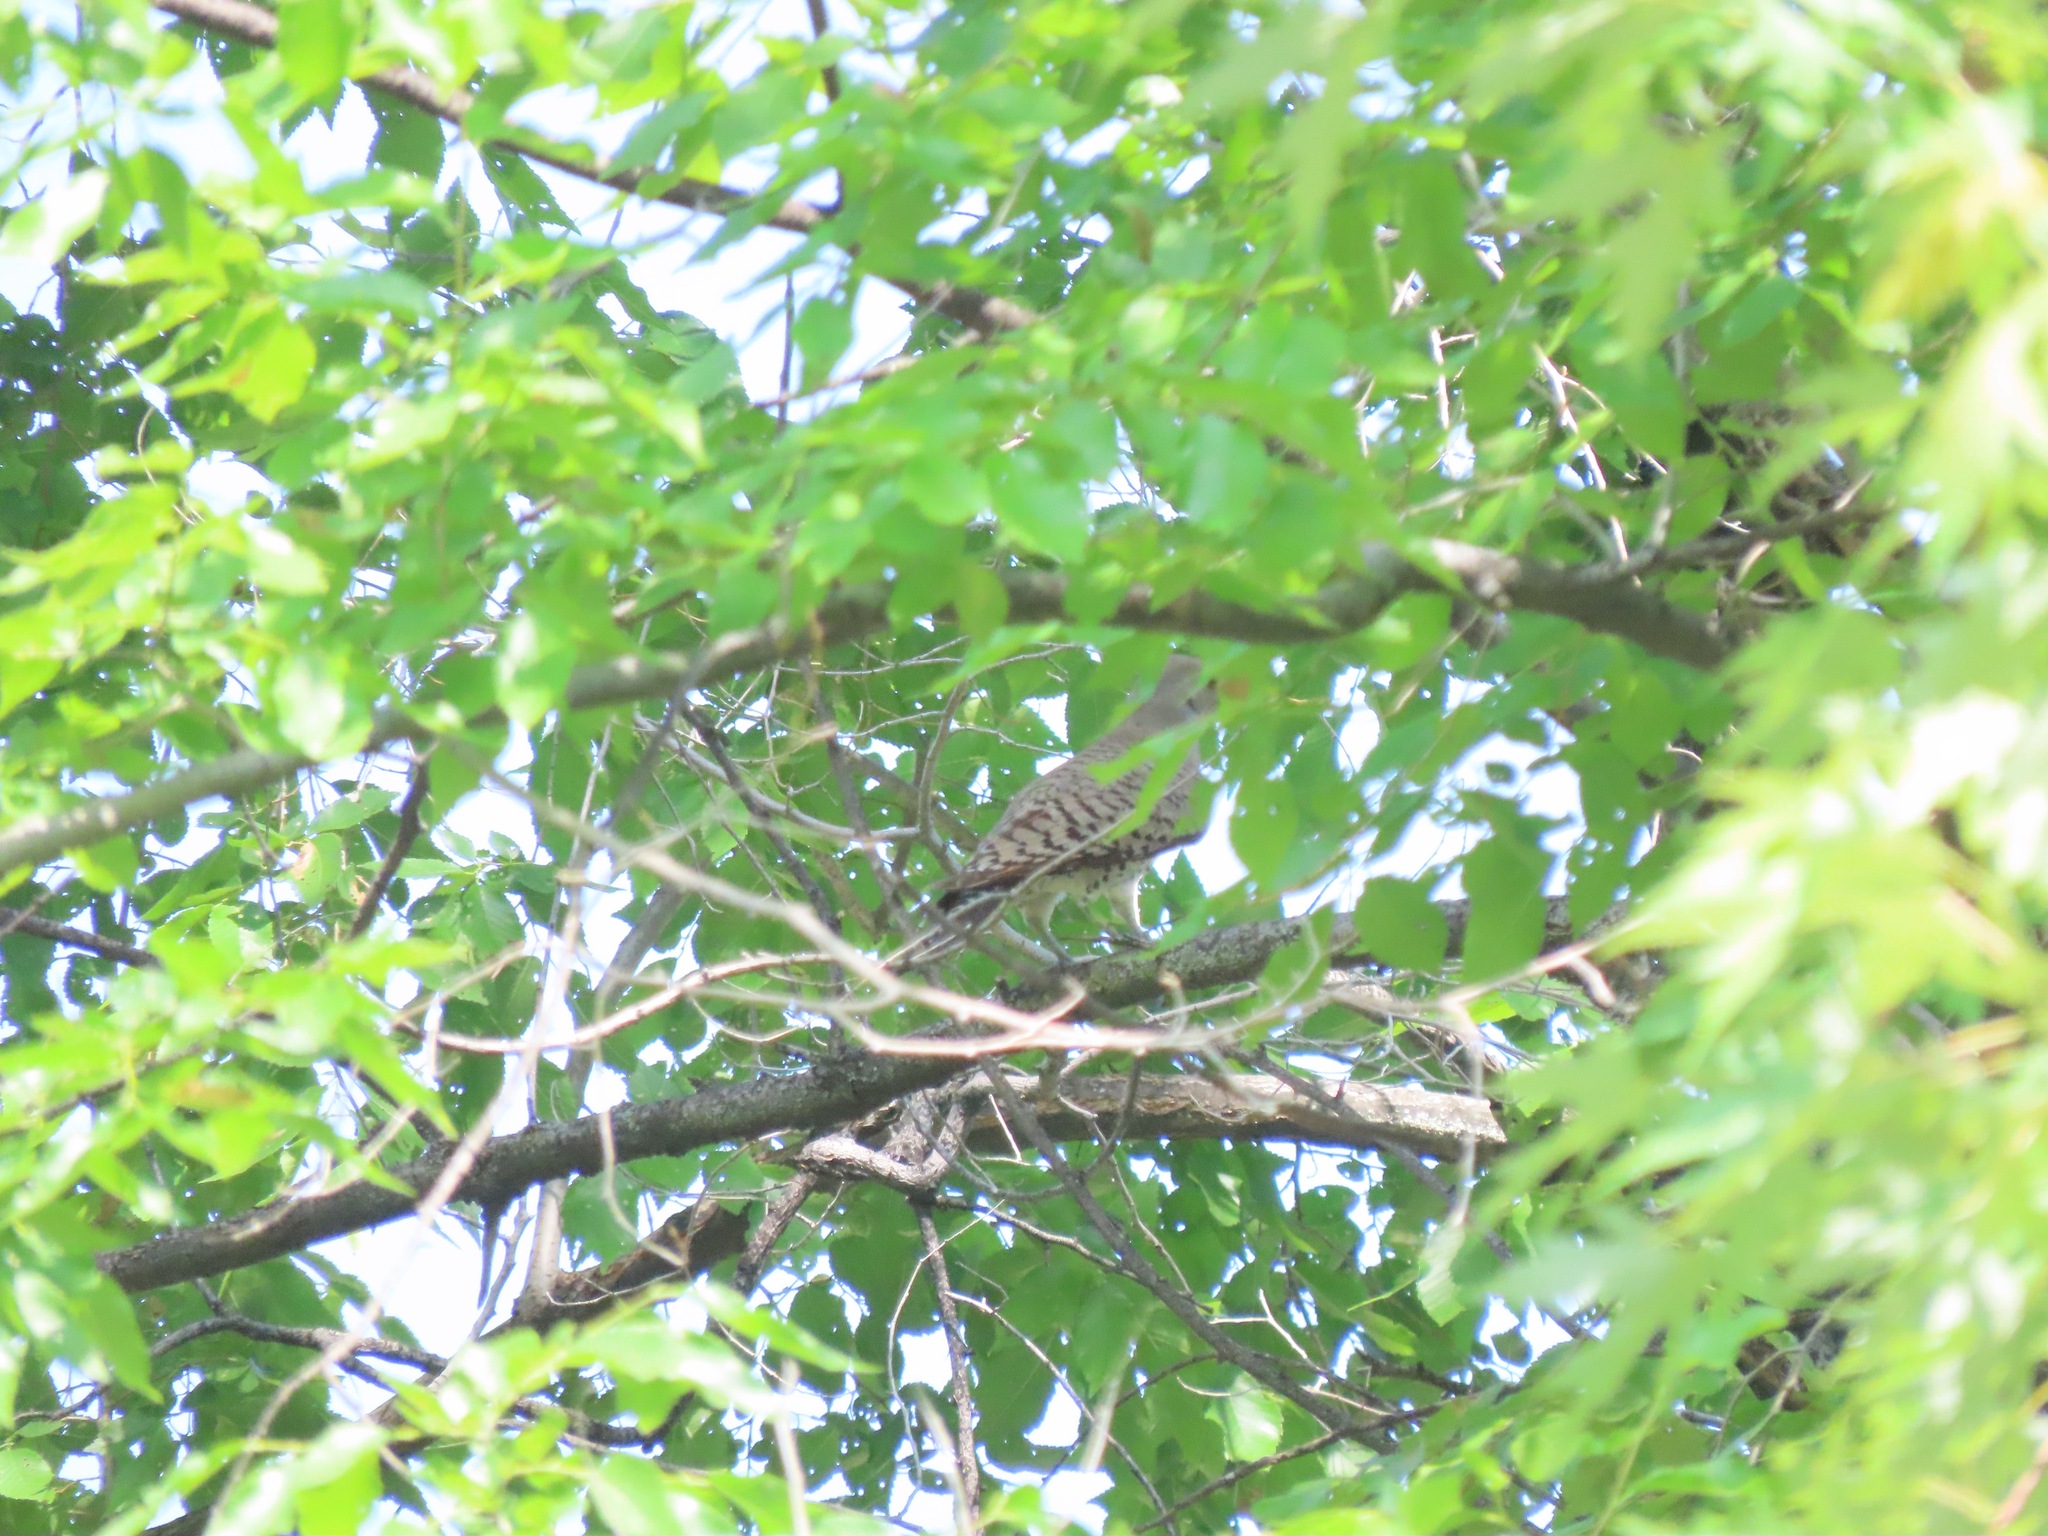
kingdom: Animalia
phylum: Chordata
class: Aves
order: Piciformes
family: Picidae
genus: Colaptes
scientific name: Colaptes auratus
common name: Northern flicker
